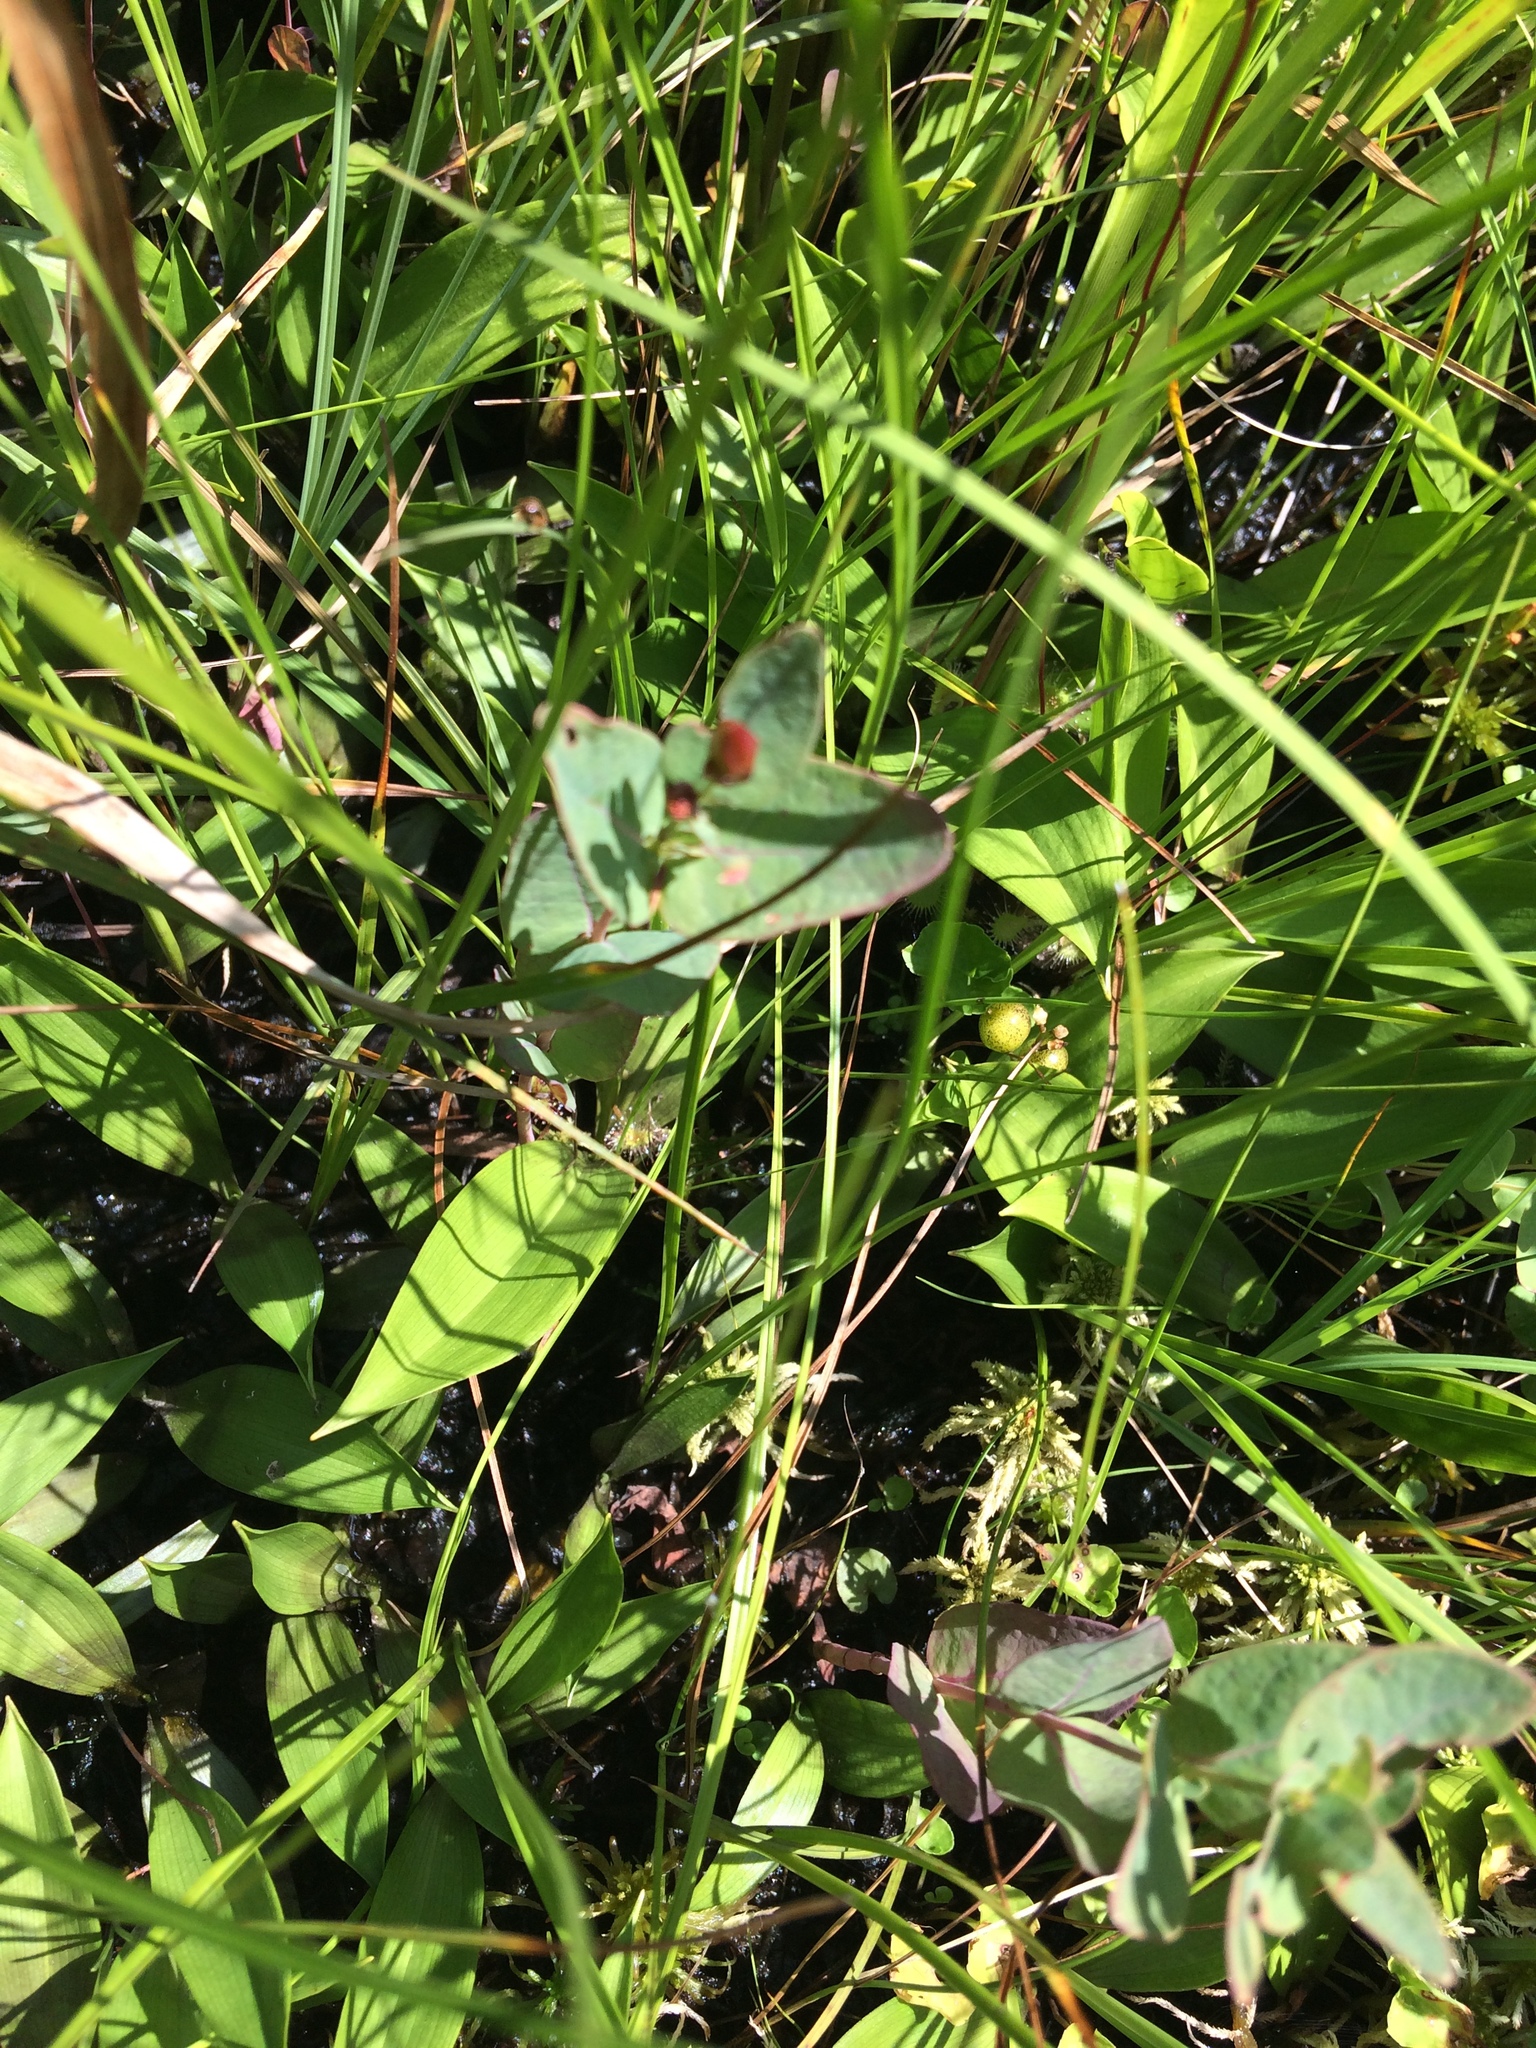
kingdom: Plantae
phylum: Tracheophyta
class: Magnoliopsida
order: Malpighiales
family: Hypericaceae
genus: Triadenum
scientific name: Triadenum virginicum
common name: Marsh st. john's-wort
